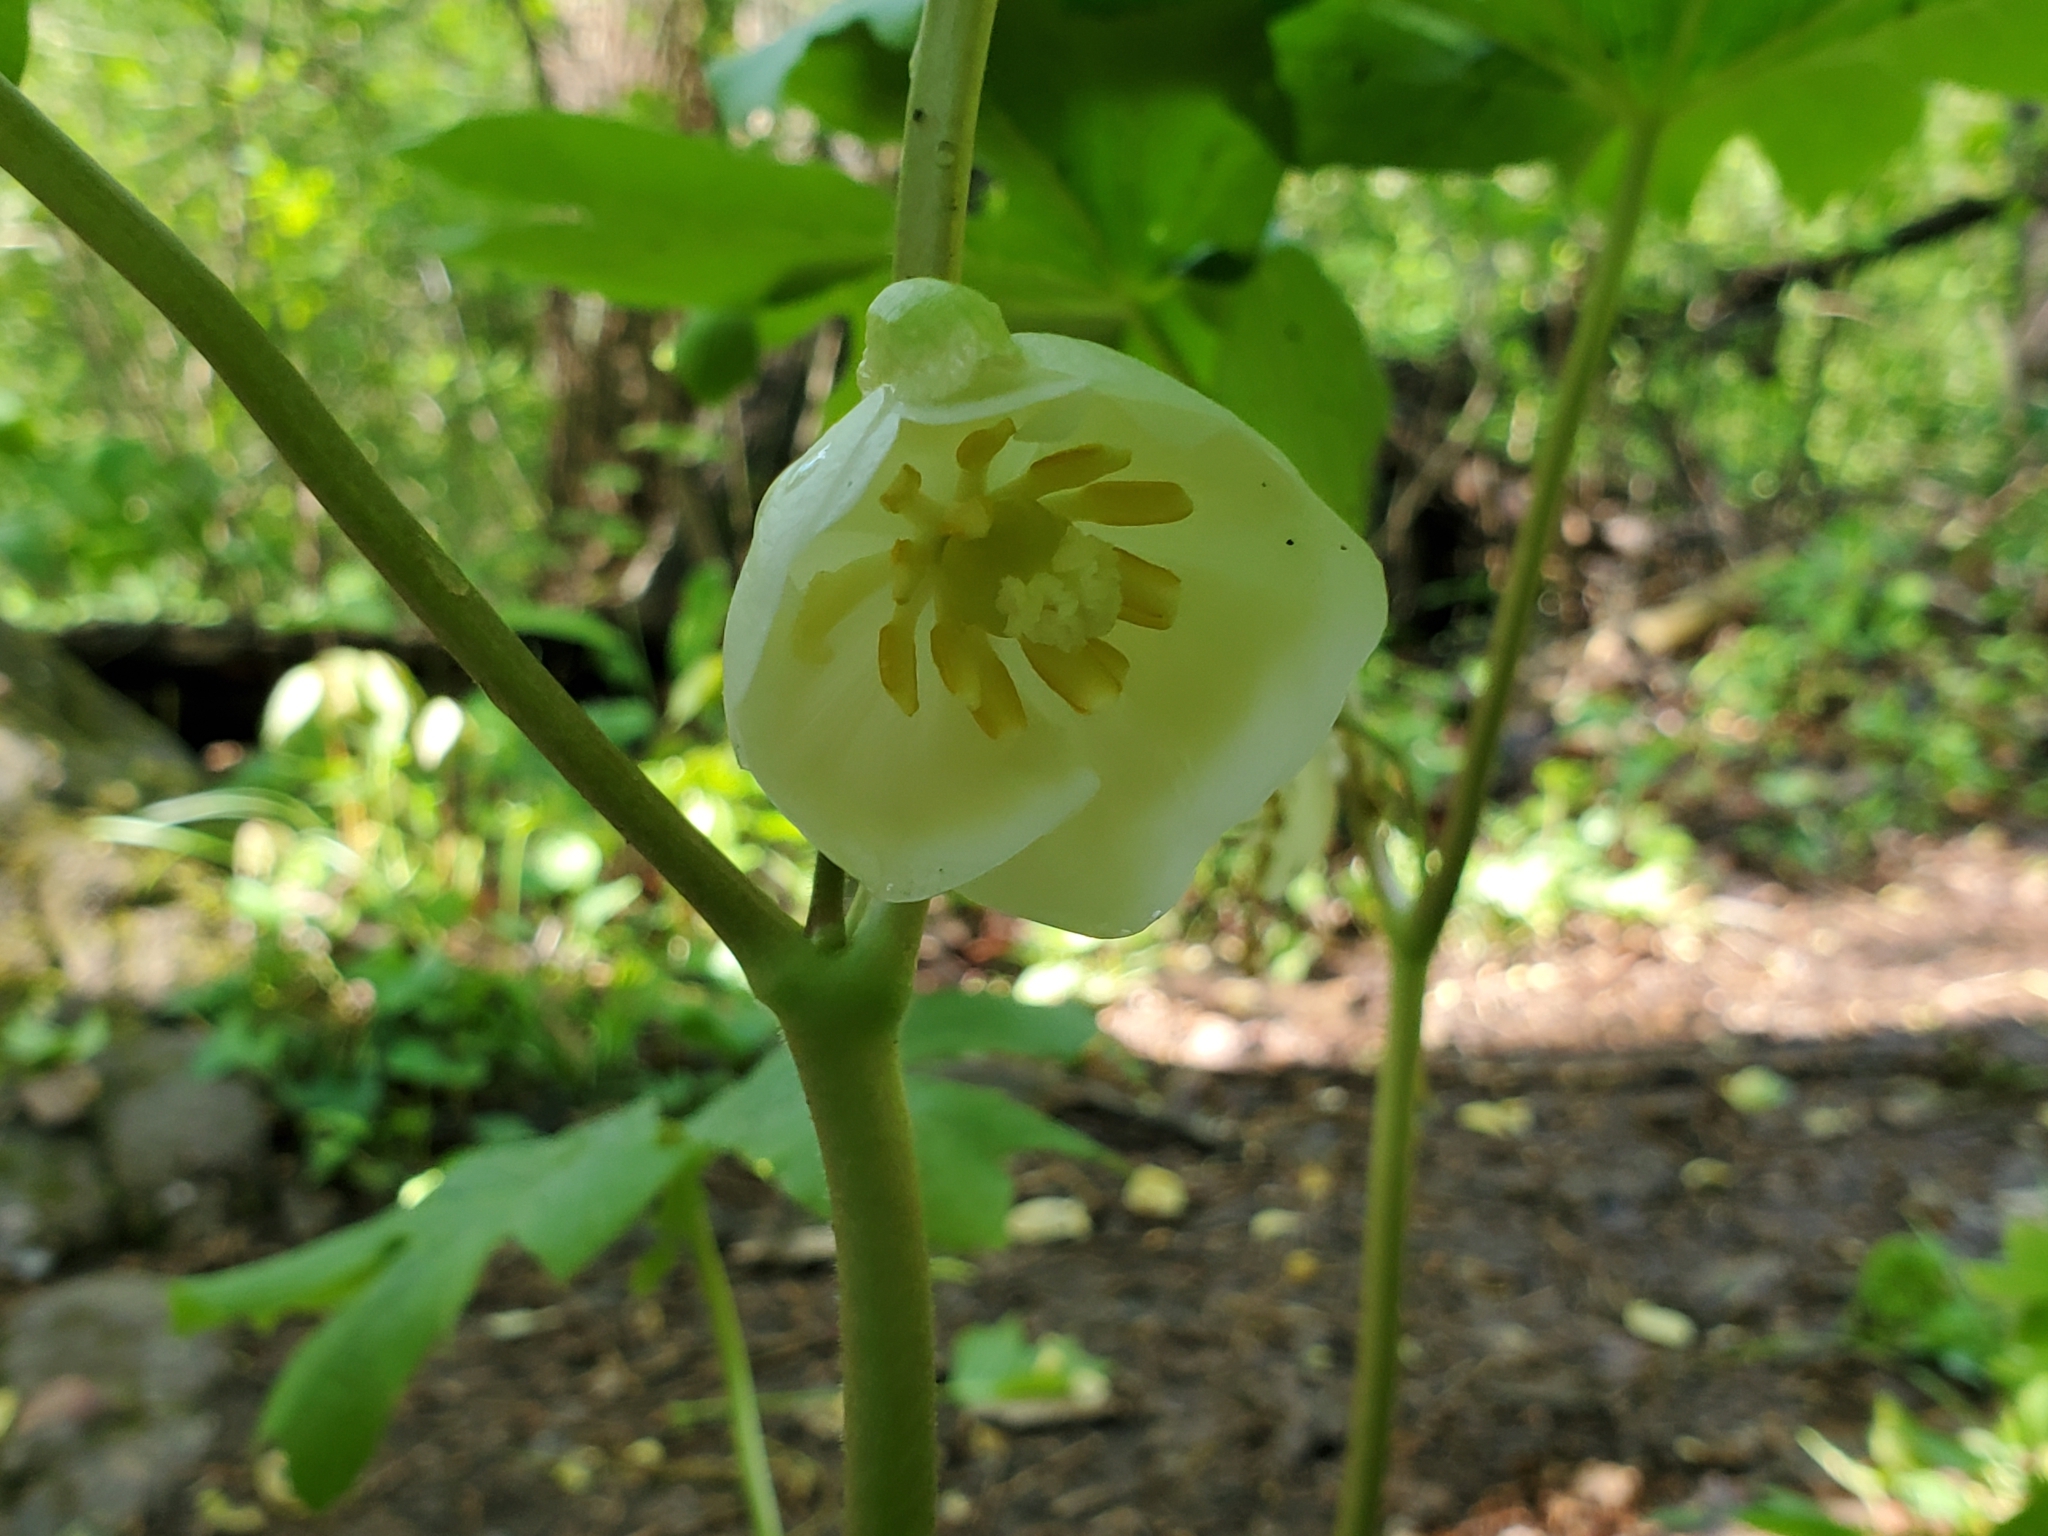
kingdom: Plantae
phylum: Tracheophyta
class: Magnoliopsida
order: Ranunculales
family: Berberidaceae
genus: Podophyllum
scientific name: Podophyllum peltatum
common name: Wild mandrake
